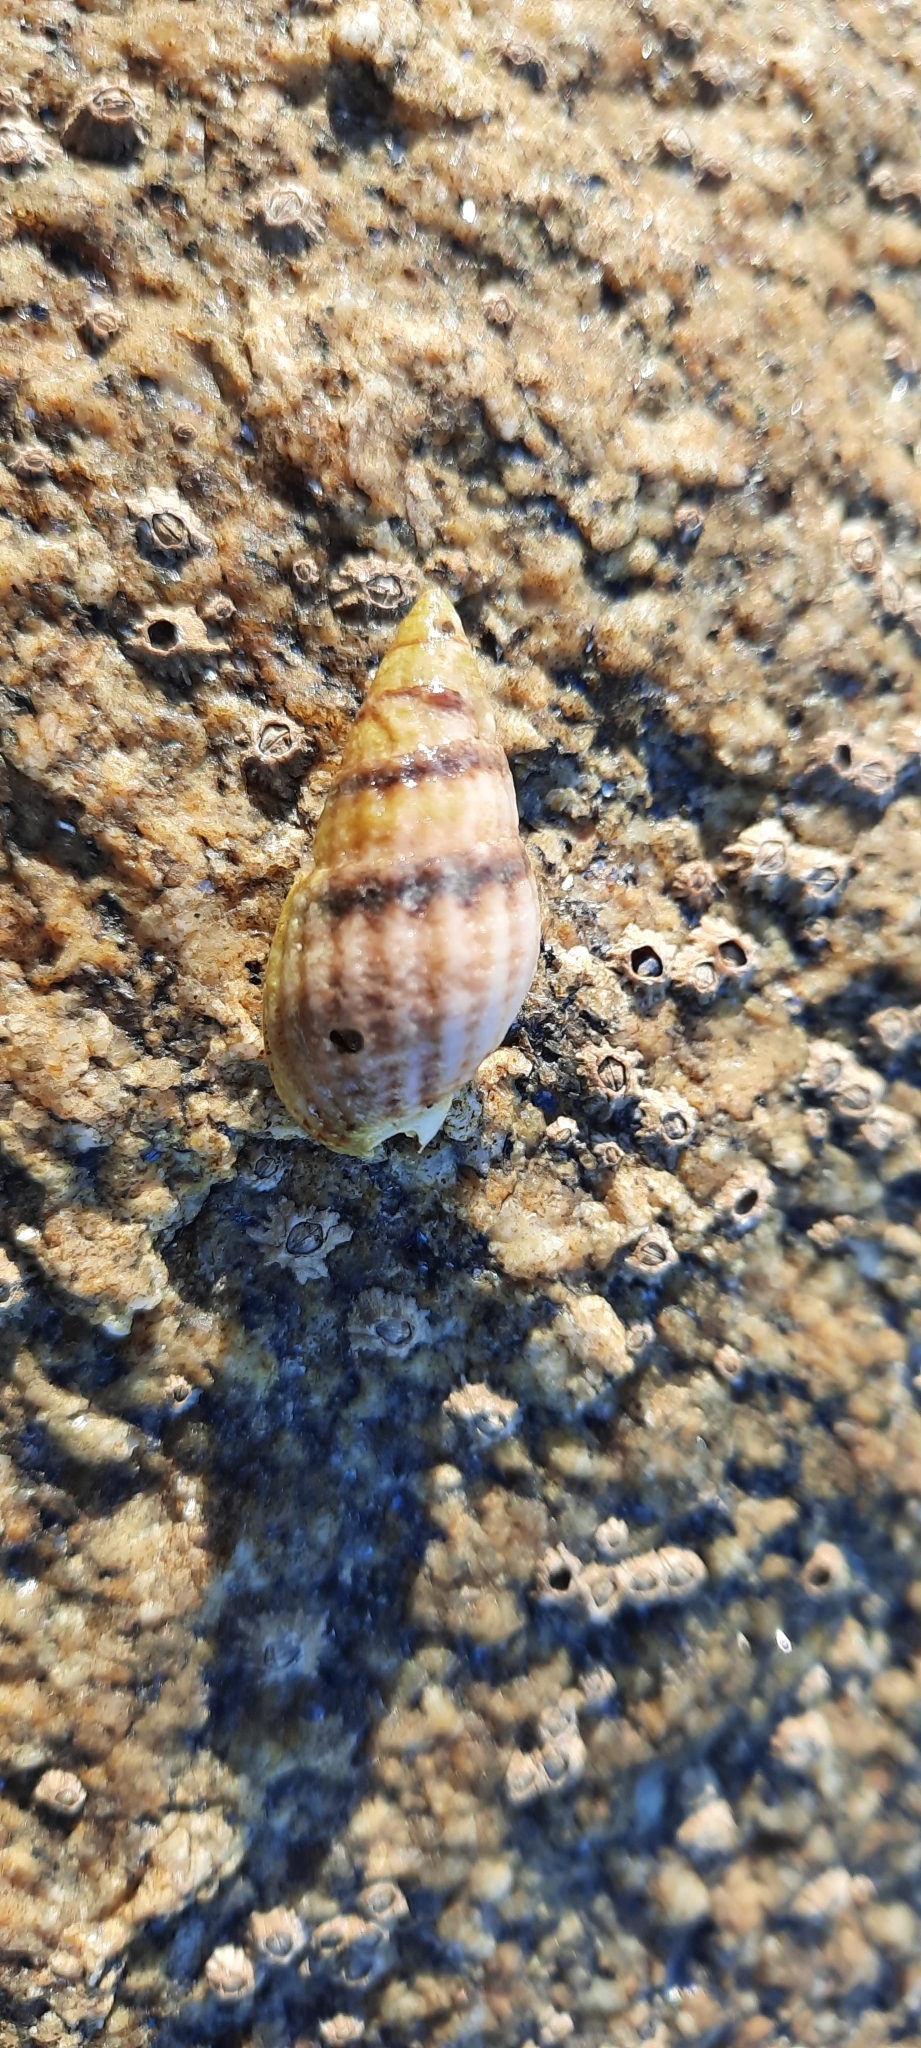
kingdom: Animalia
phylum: Mollusca
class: Gastropoda
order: Neogastropoda
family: Nassariidae
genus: Tritia
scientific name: Tritia reticulata
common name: Netted dog whelk
